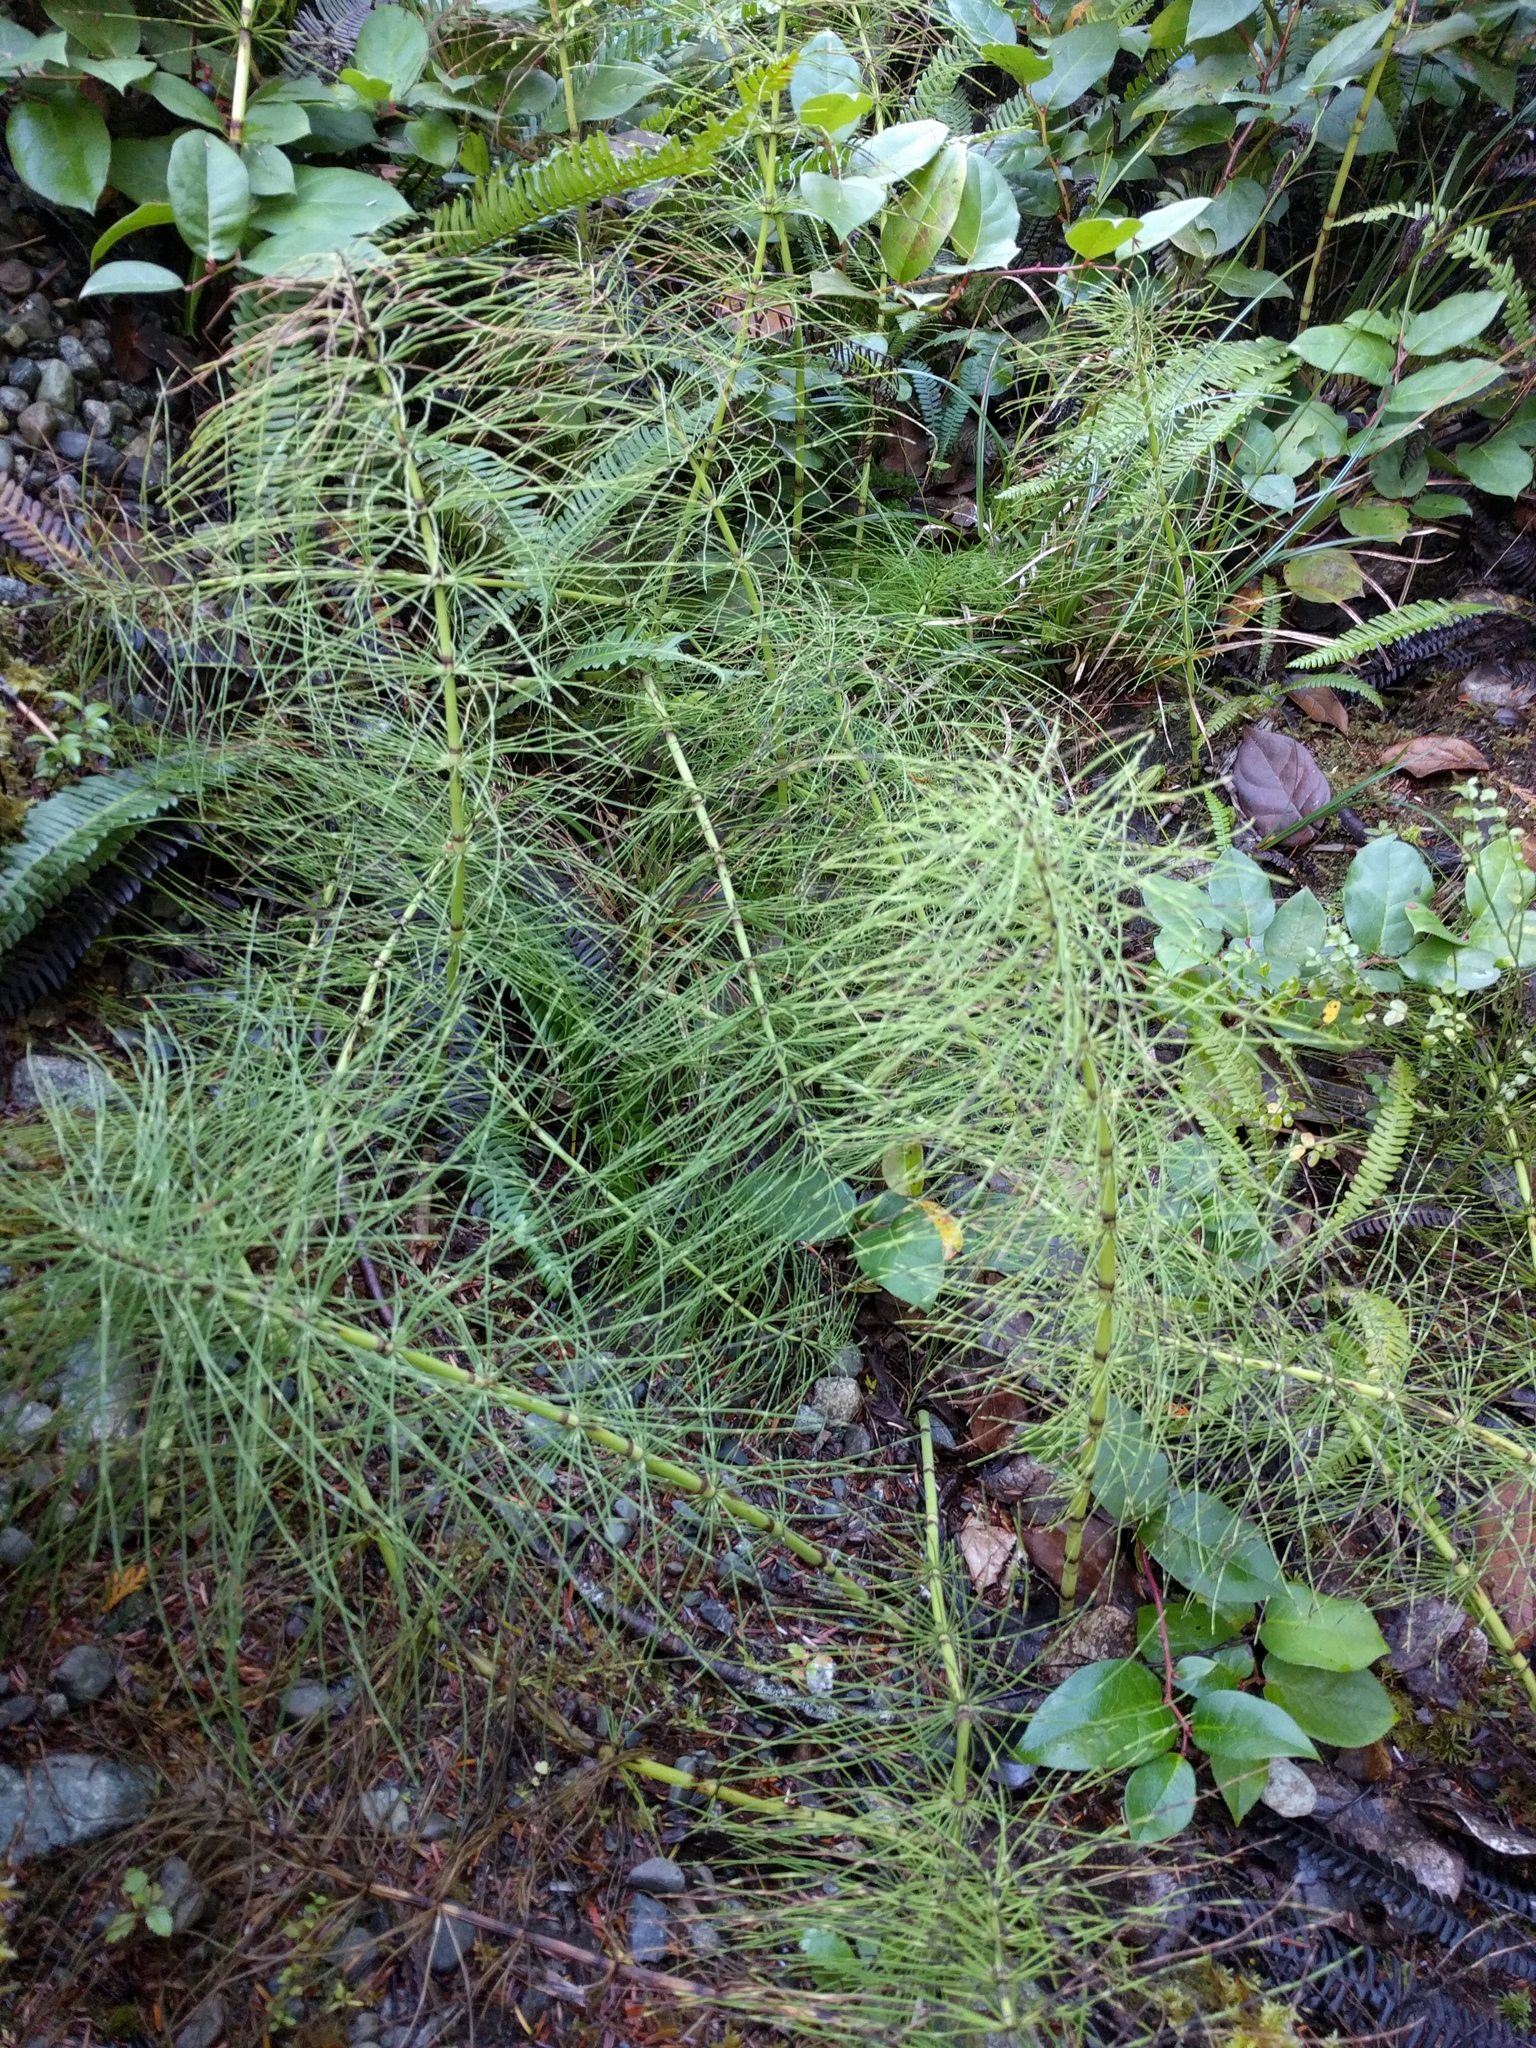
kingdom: Plantae
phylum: Tracheophyta
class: Polypodiopsida
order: Equisetales
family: Equisetaceae
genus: Equisetum
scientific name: Equisetum telmateia
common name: Great horsetail
